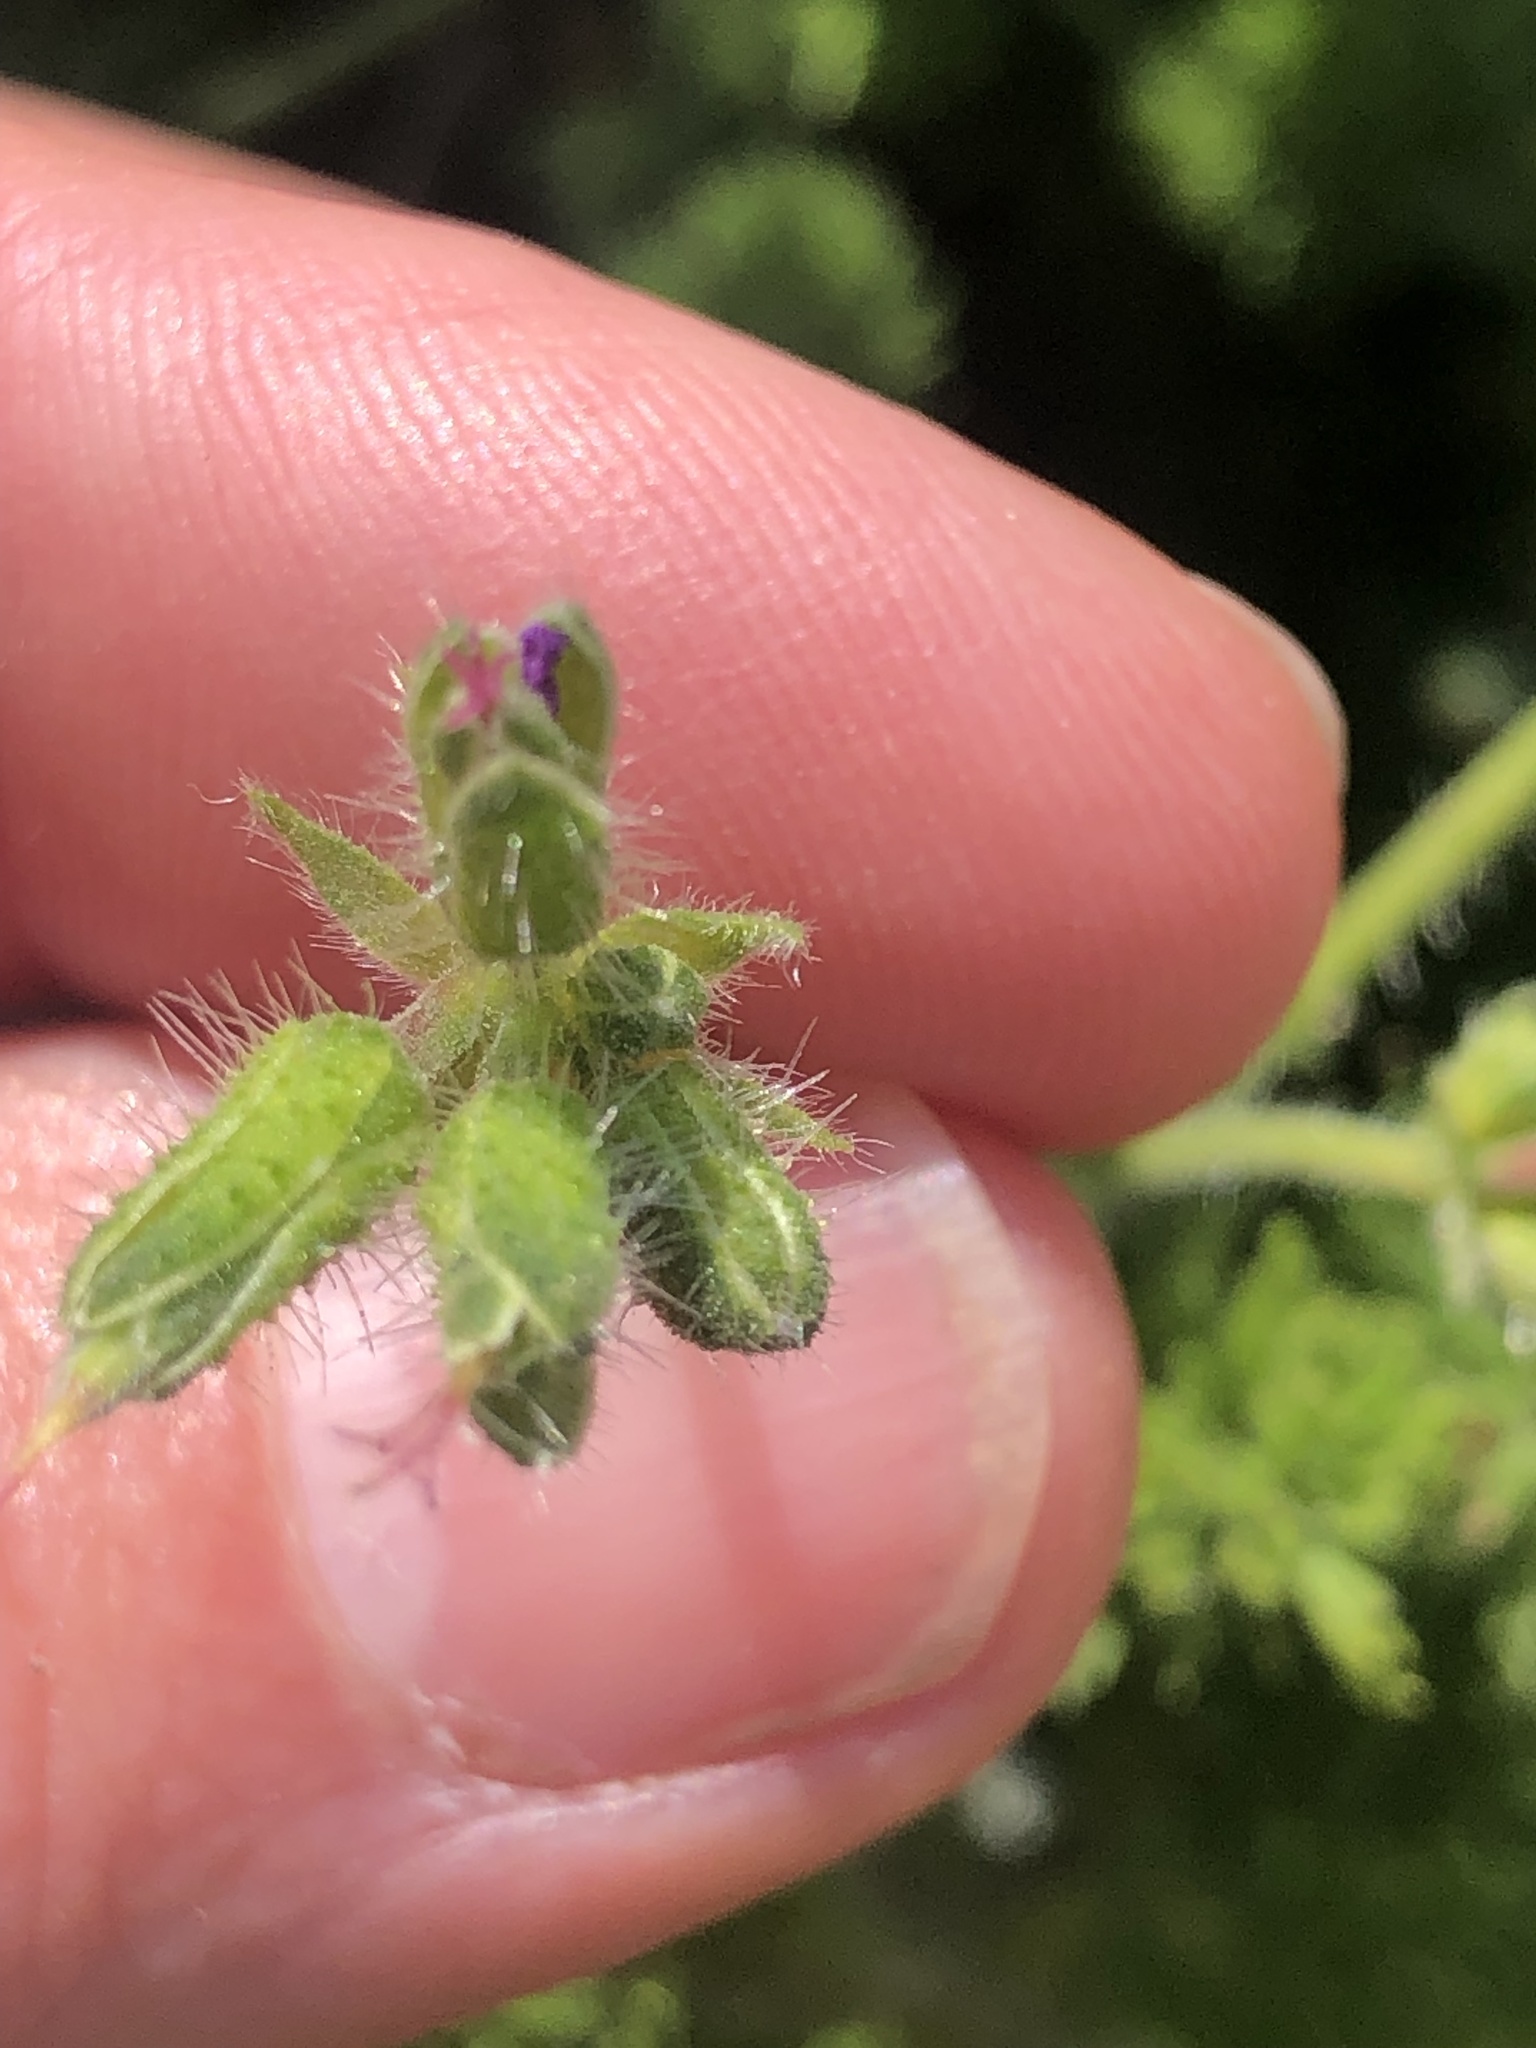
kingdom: Plantae
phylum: Tracheophyta
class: Magnoliopsida
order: Geraniales
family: Geraniaceae
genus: Pelargonium
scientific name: Pelargonium hirtum
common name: Fine-leaf pelargonium
